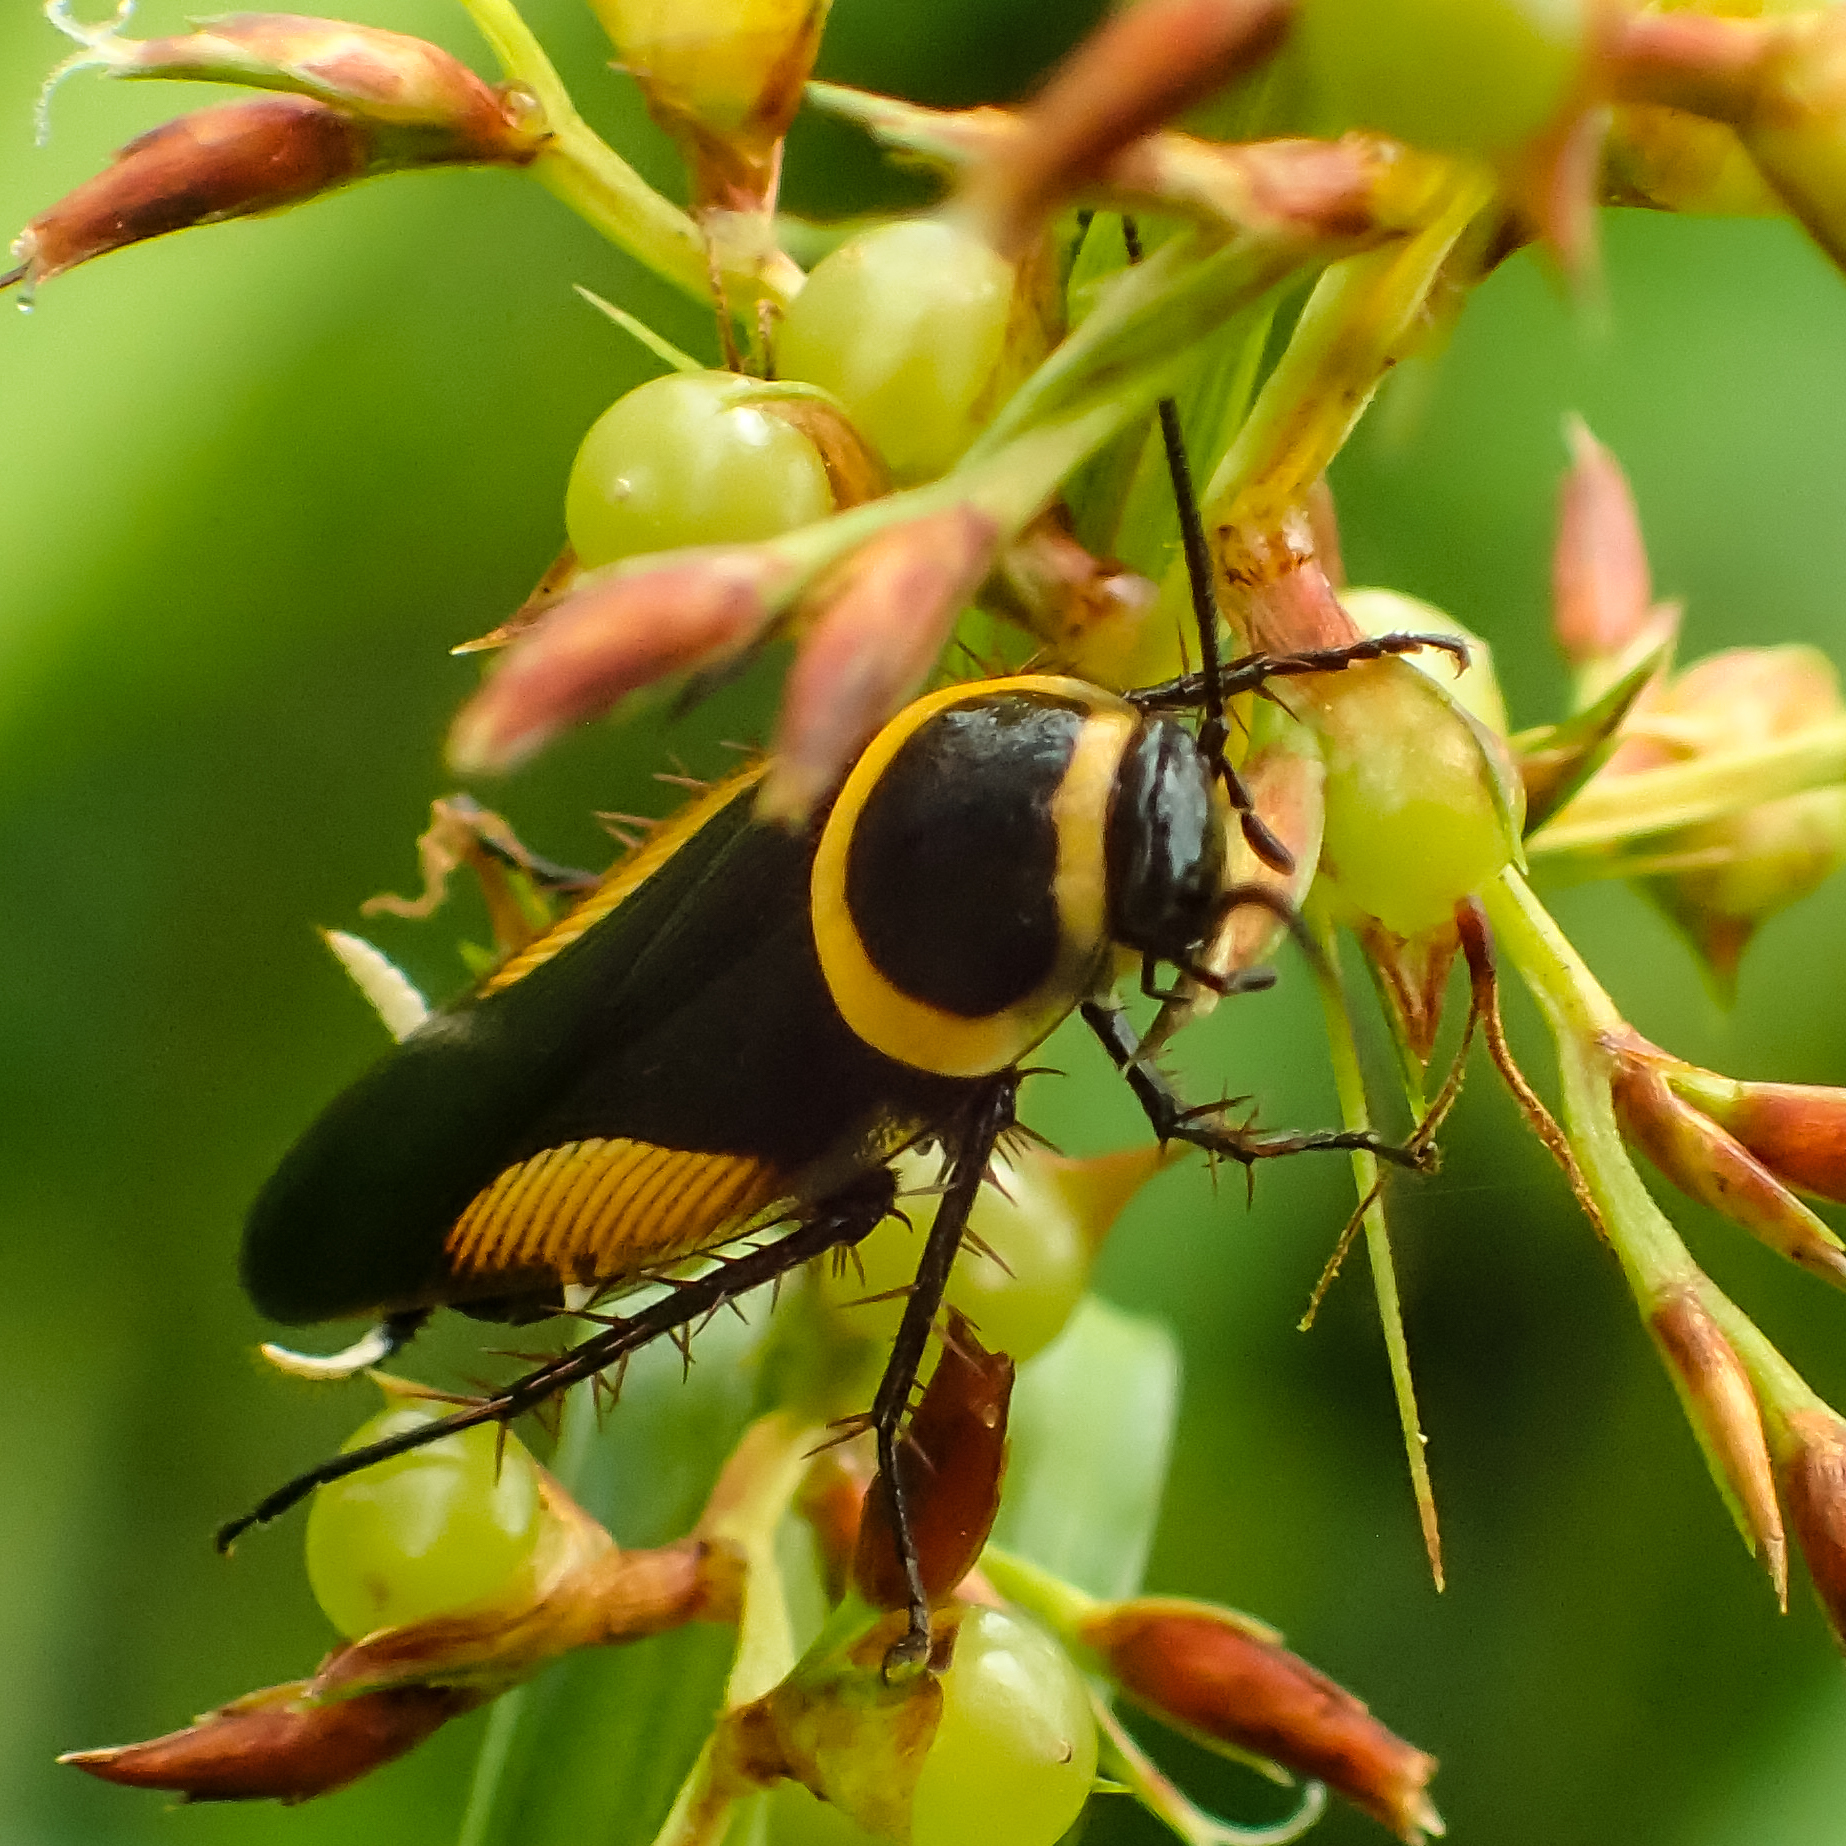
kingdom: Animalia
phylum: Arthropoda
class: Insecta
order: Blattodea
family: Ectobiidae
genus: Hemithyrsocera
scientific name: Hemithyrsocera vittata
